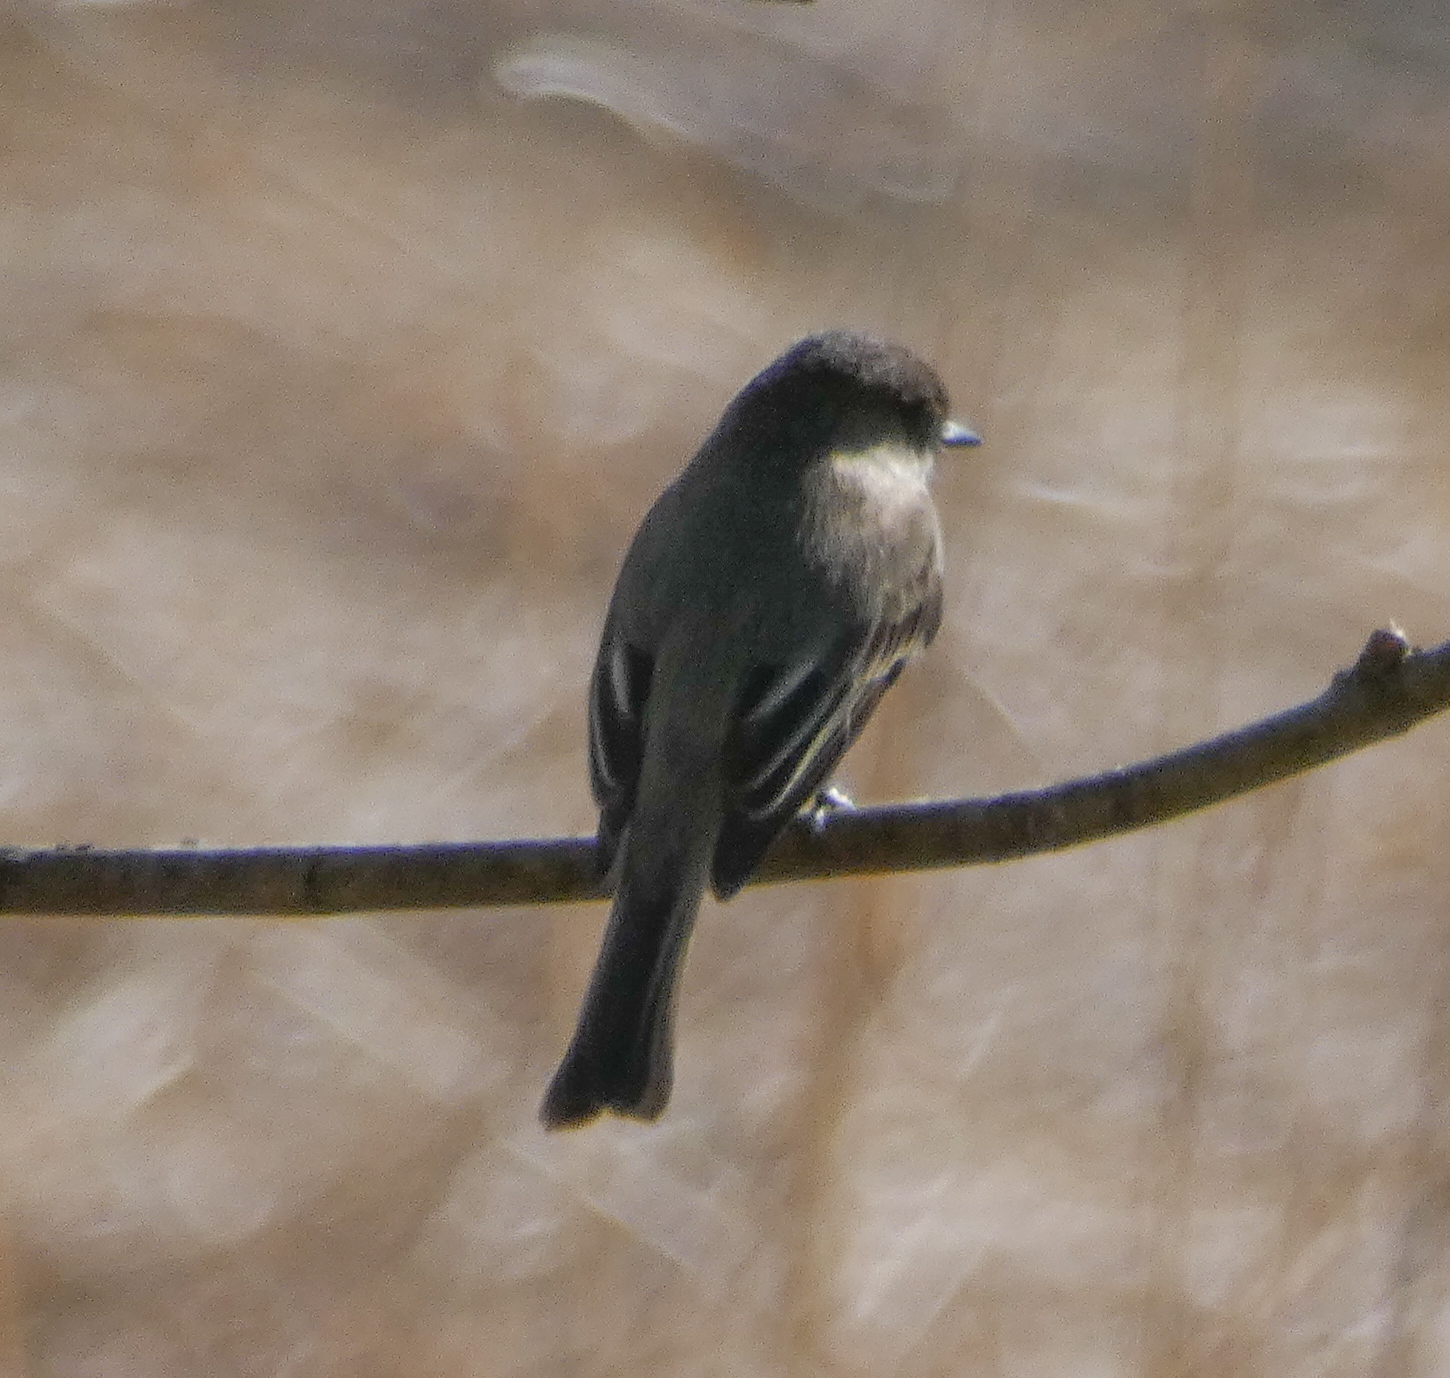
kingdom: Animalia
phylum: Chordata
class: Aves
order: Passeriformes
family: Tyrannidae
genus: Sayornis
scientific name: Sayornis phoebe
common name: Eastern phoebe
